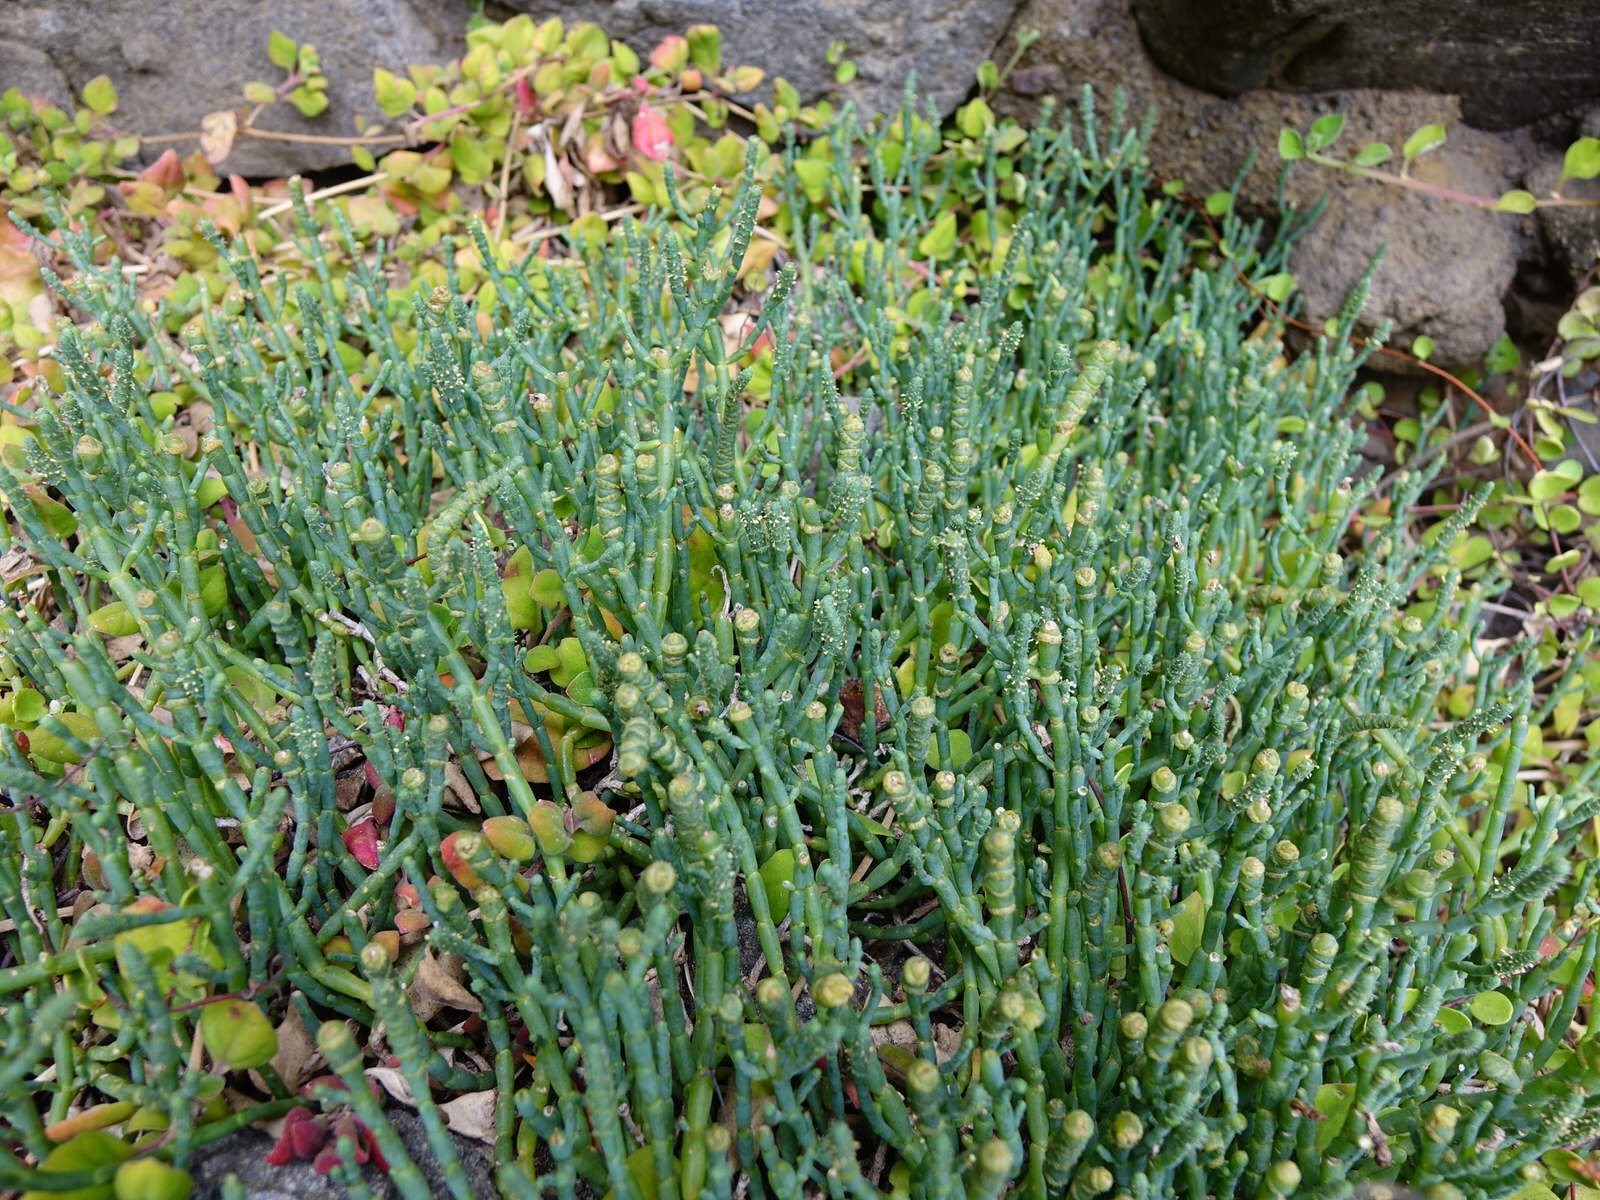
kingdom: Plantae
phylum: Tracheophyta
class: Magnoliopsida
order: Caryophyllales
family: Amaranthaceae
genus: Salicornia
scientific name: Salicornia quinqueflora
